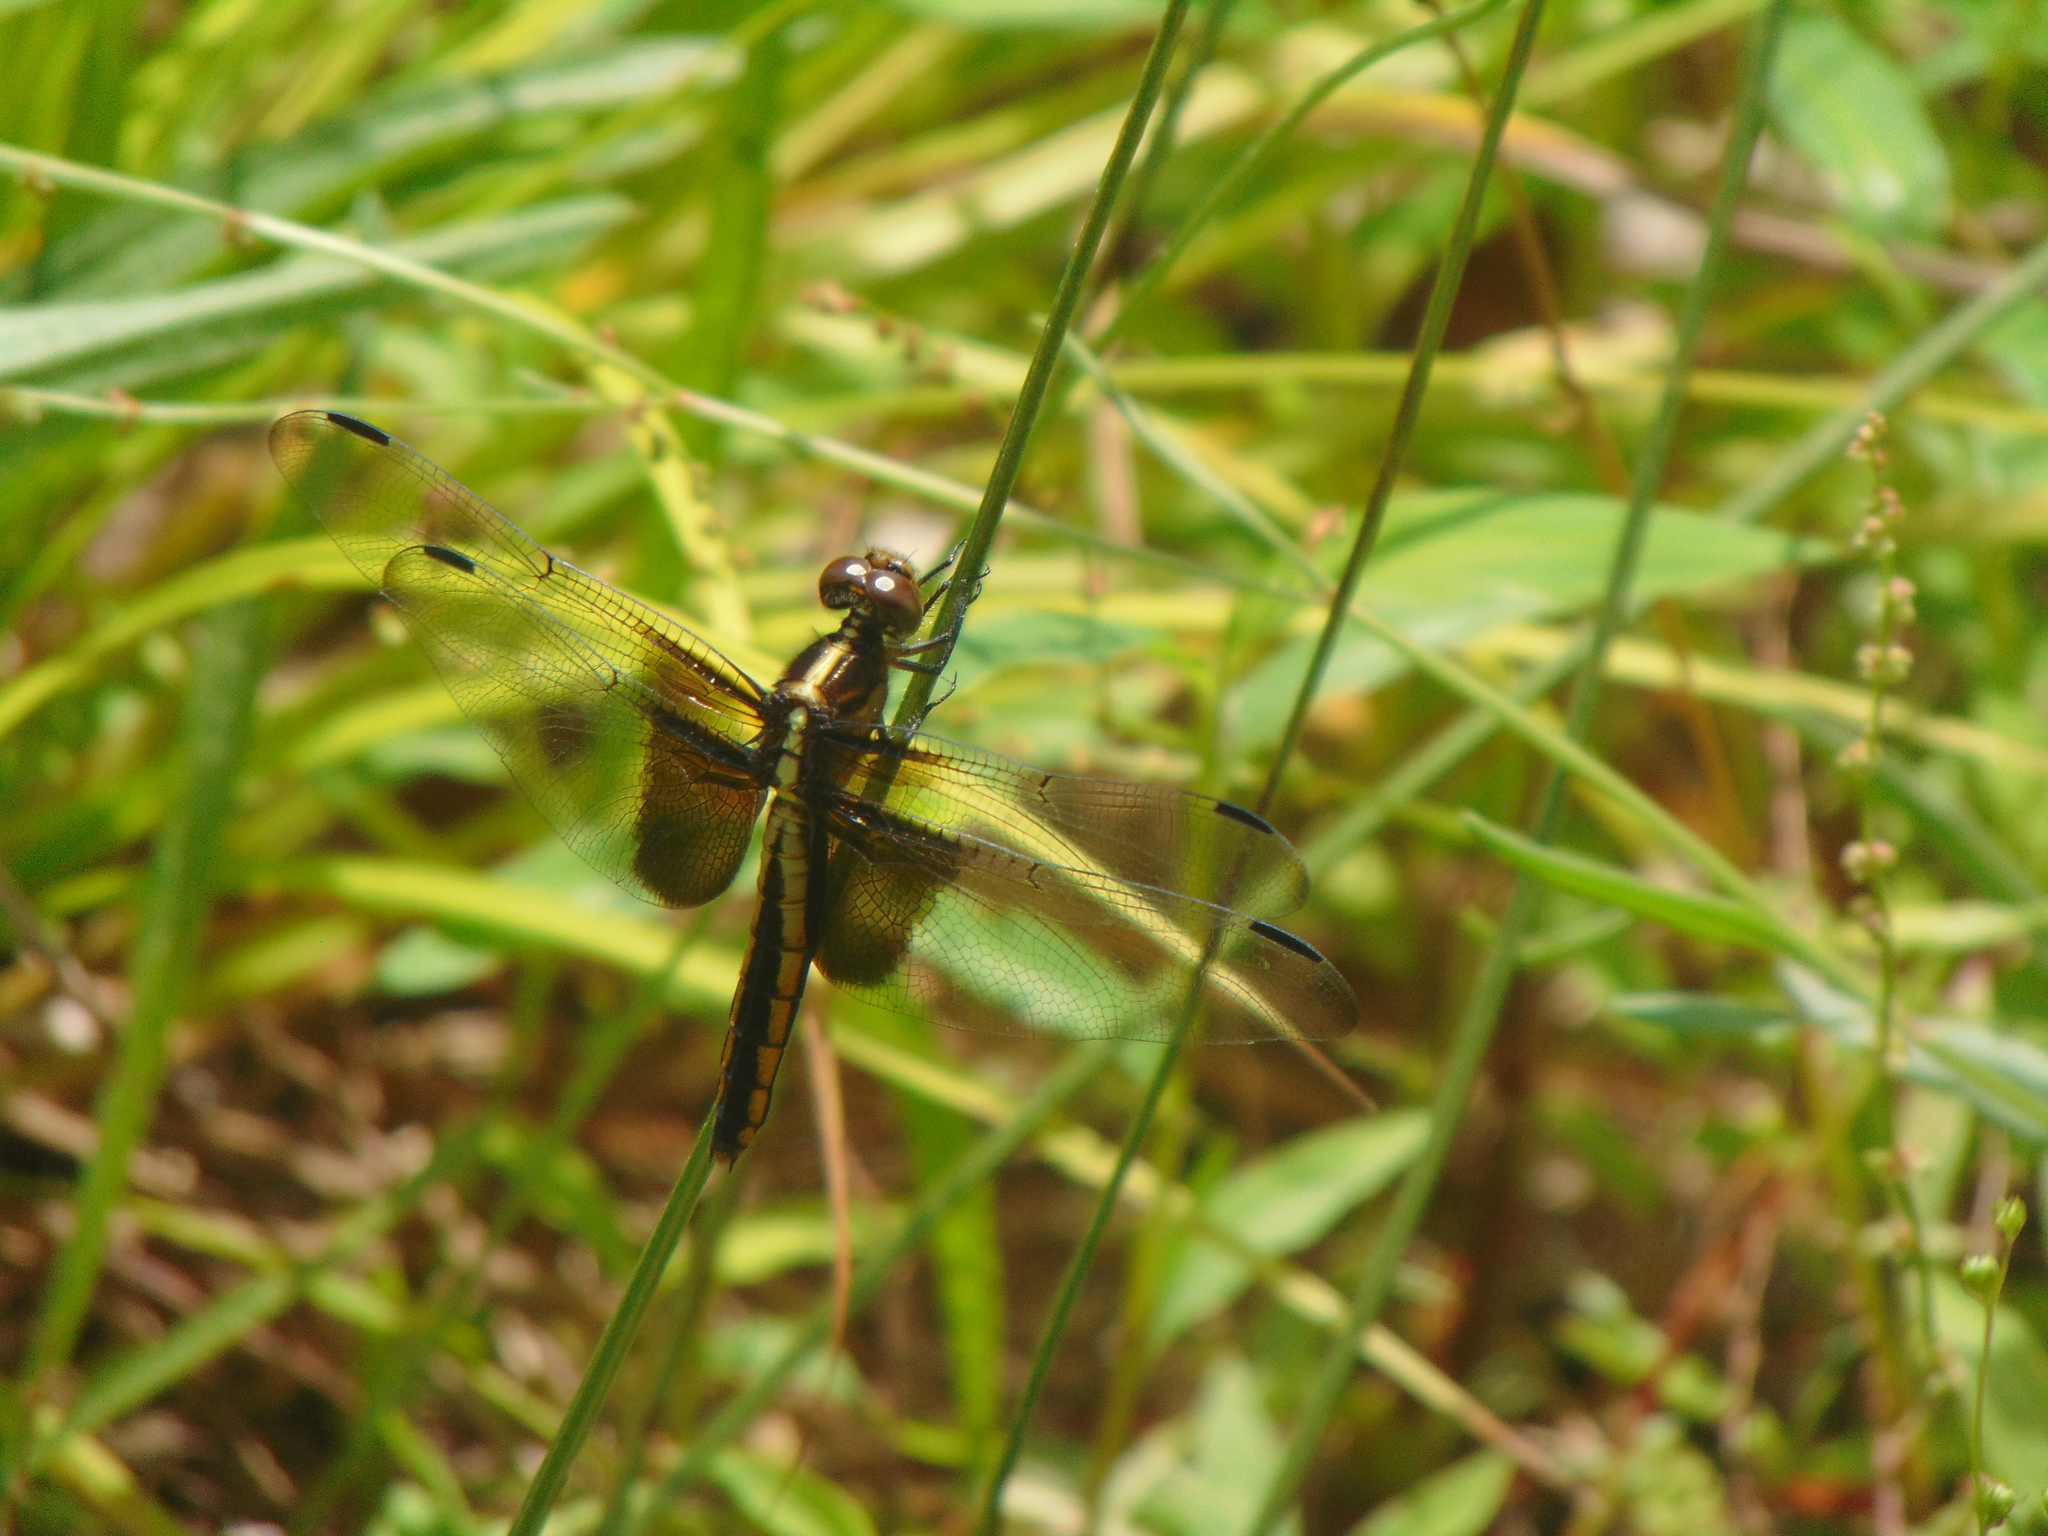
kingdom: Animalia
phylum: Arthropoda
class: Insecta
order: Odonata
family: Libellulidae
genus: Libellula
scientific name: Libellula luctuosa
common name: Widow skimmer
